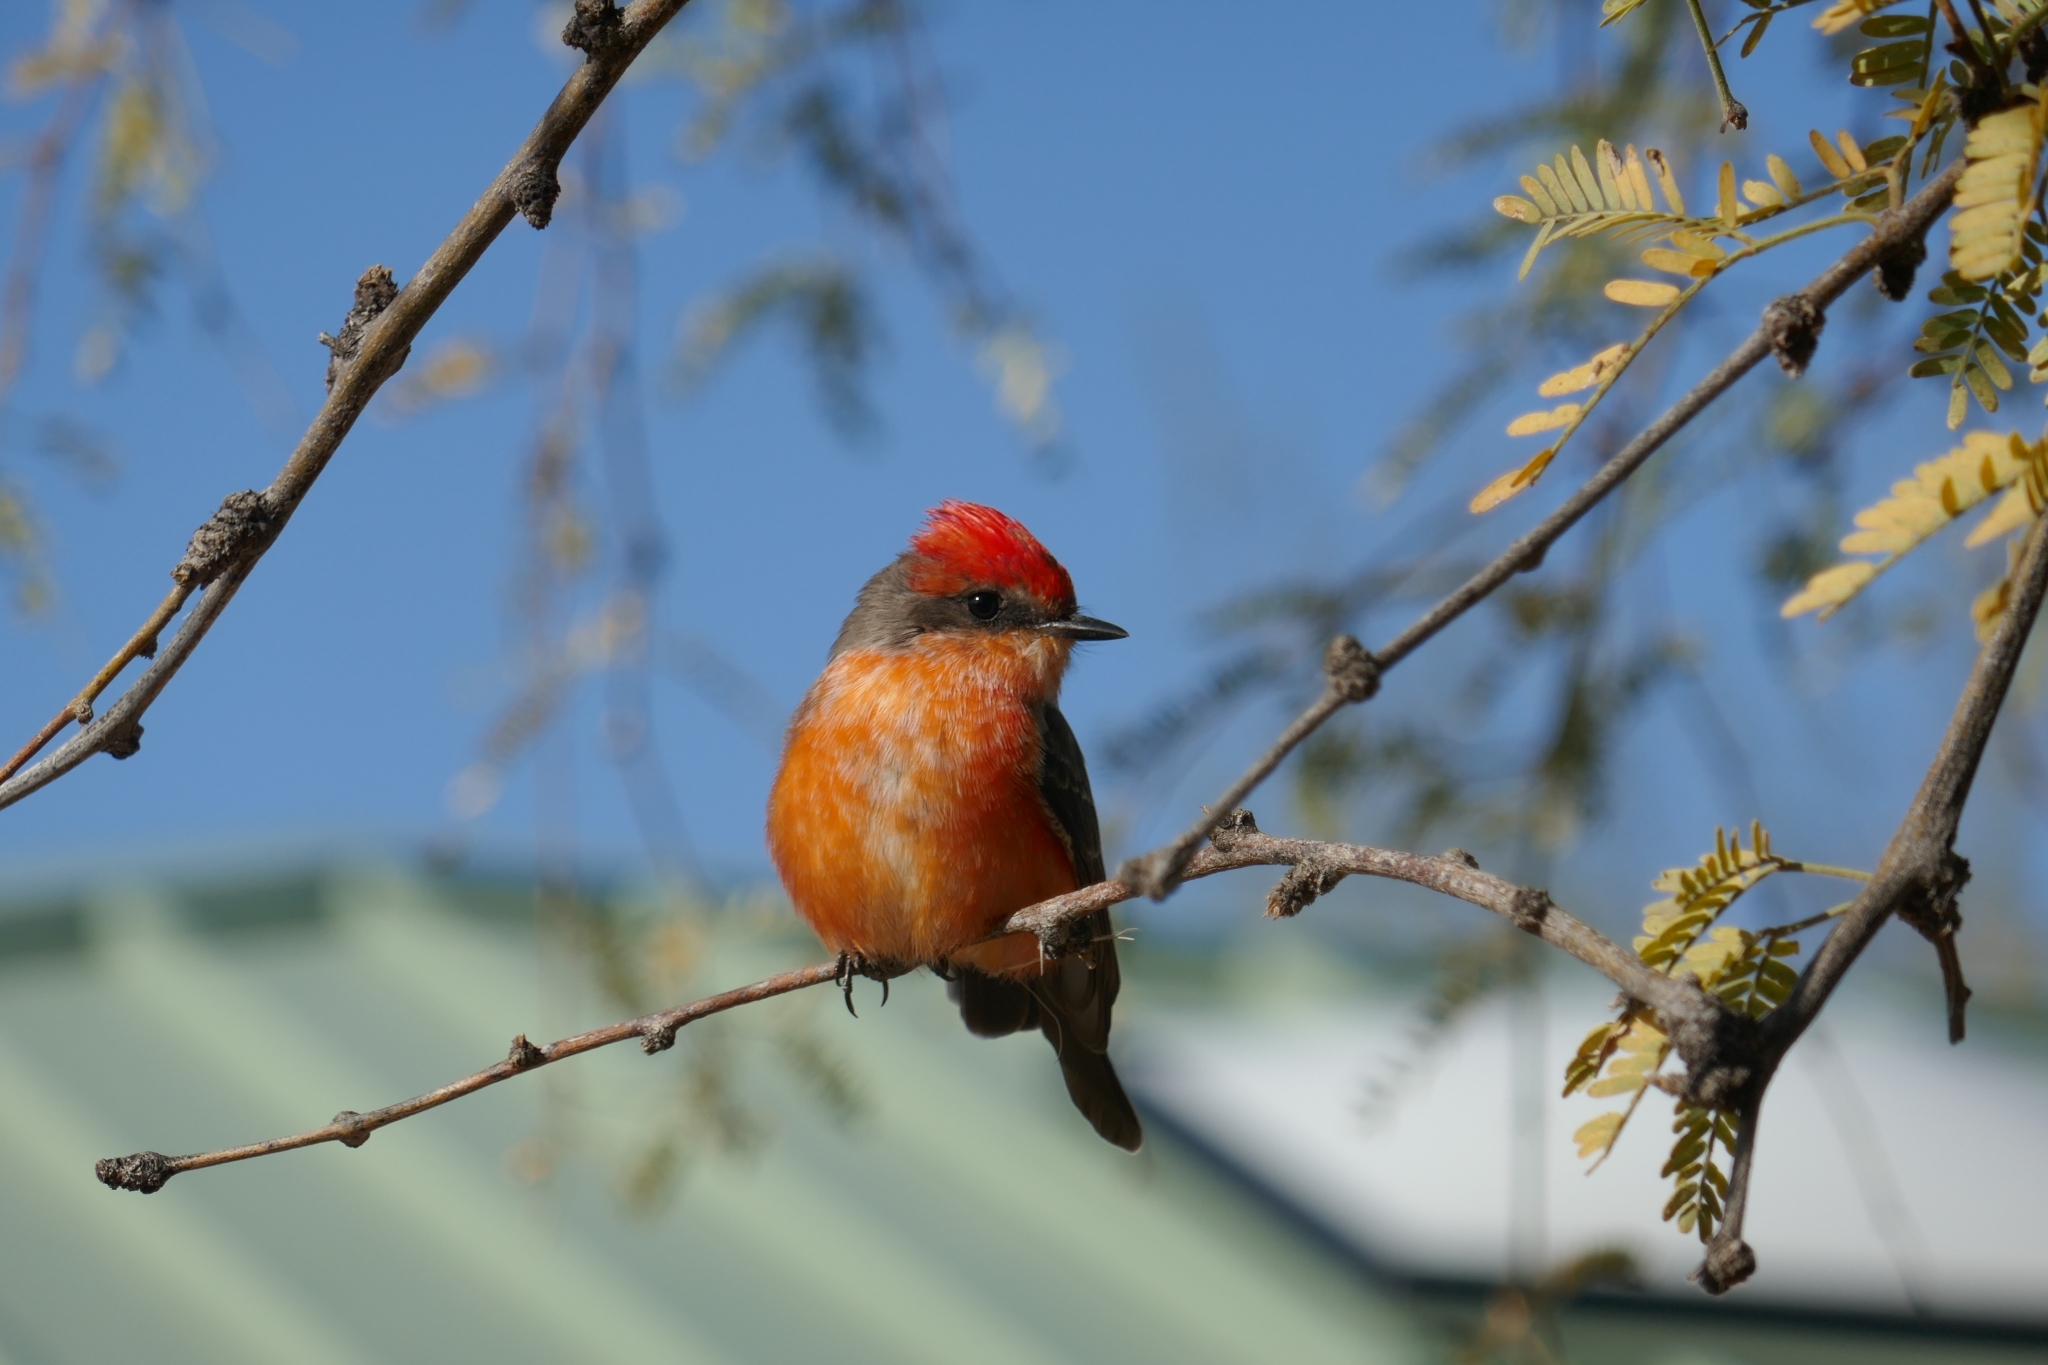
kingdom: Animalia
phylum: Chordata
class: Aves
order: Passeriformes
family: Tyrannidae
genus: Pyrocephalus
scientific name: Pyrocephalus rubinus
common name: Vermilion flycatcher
